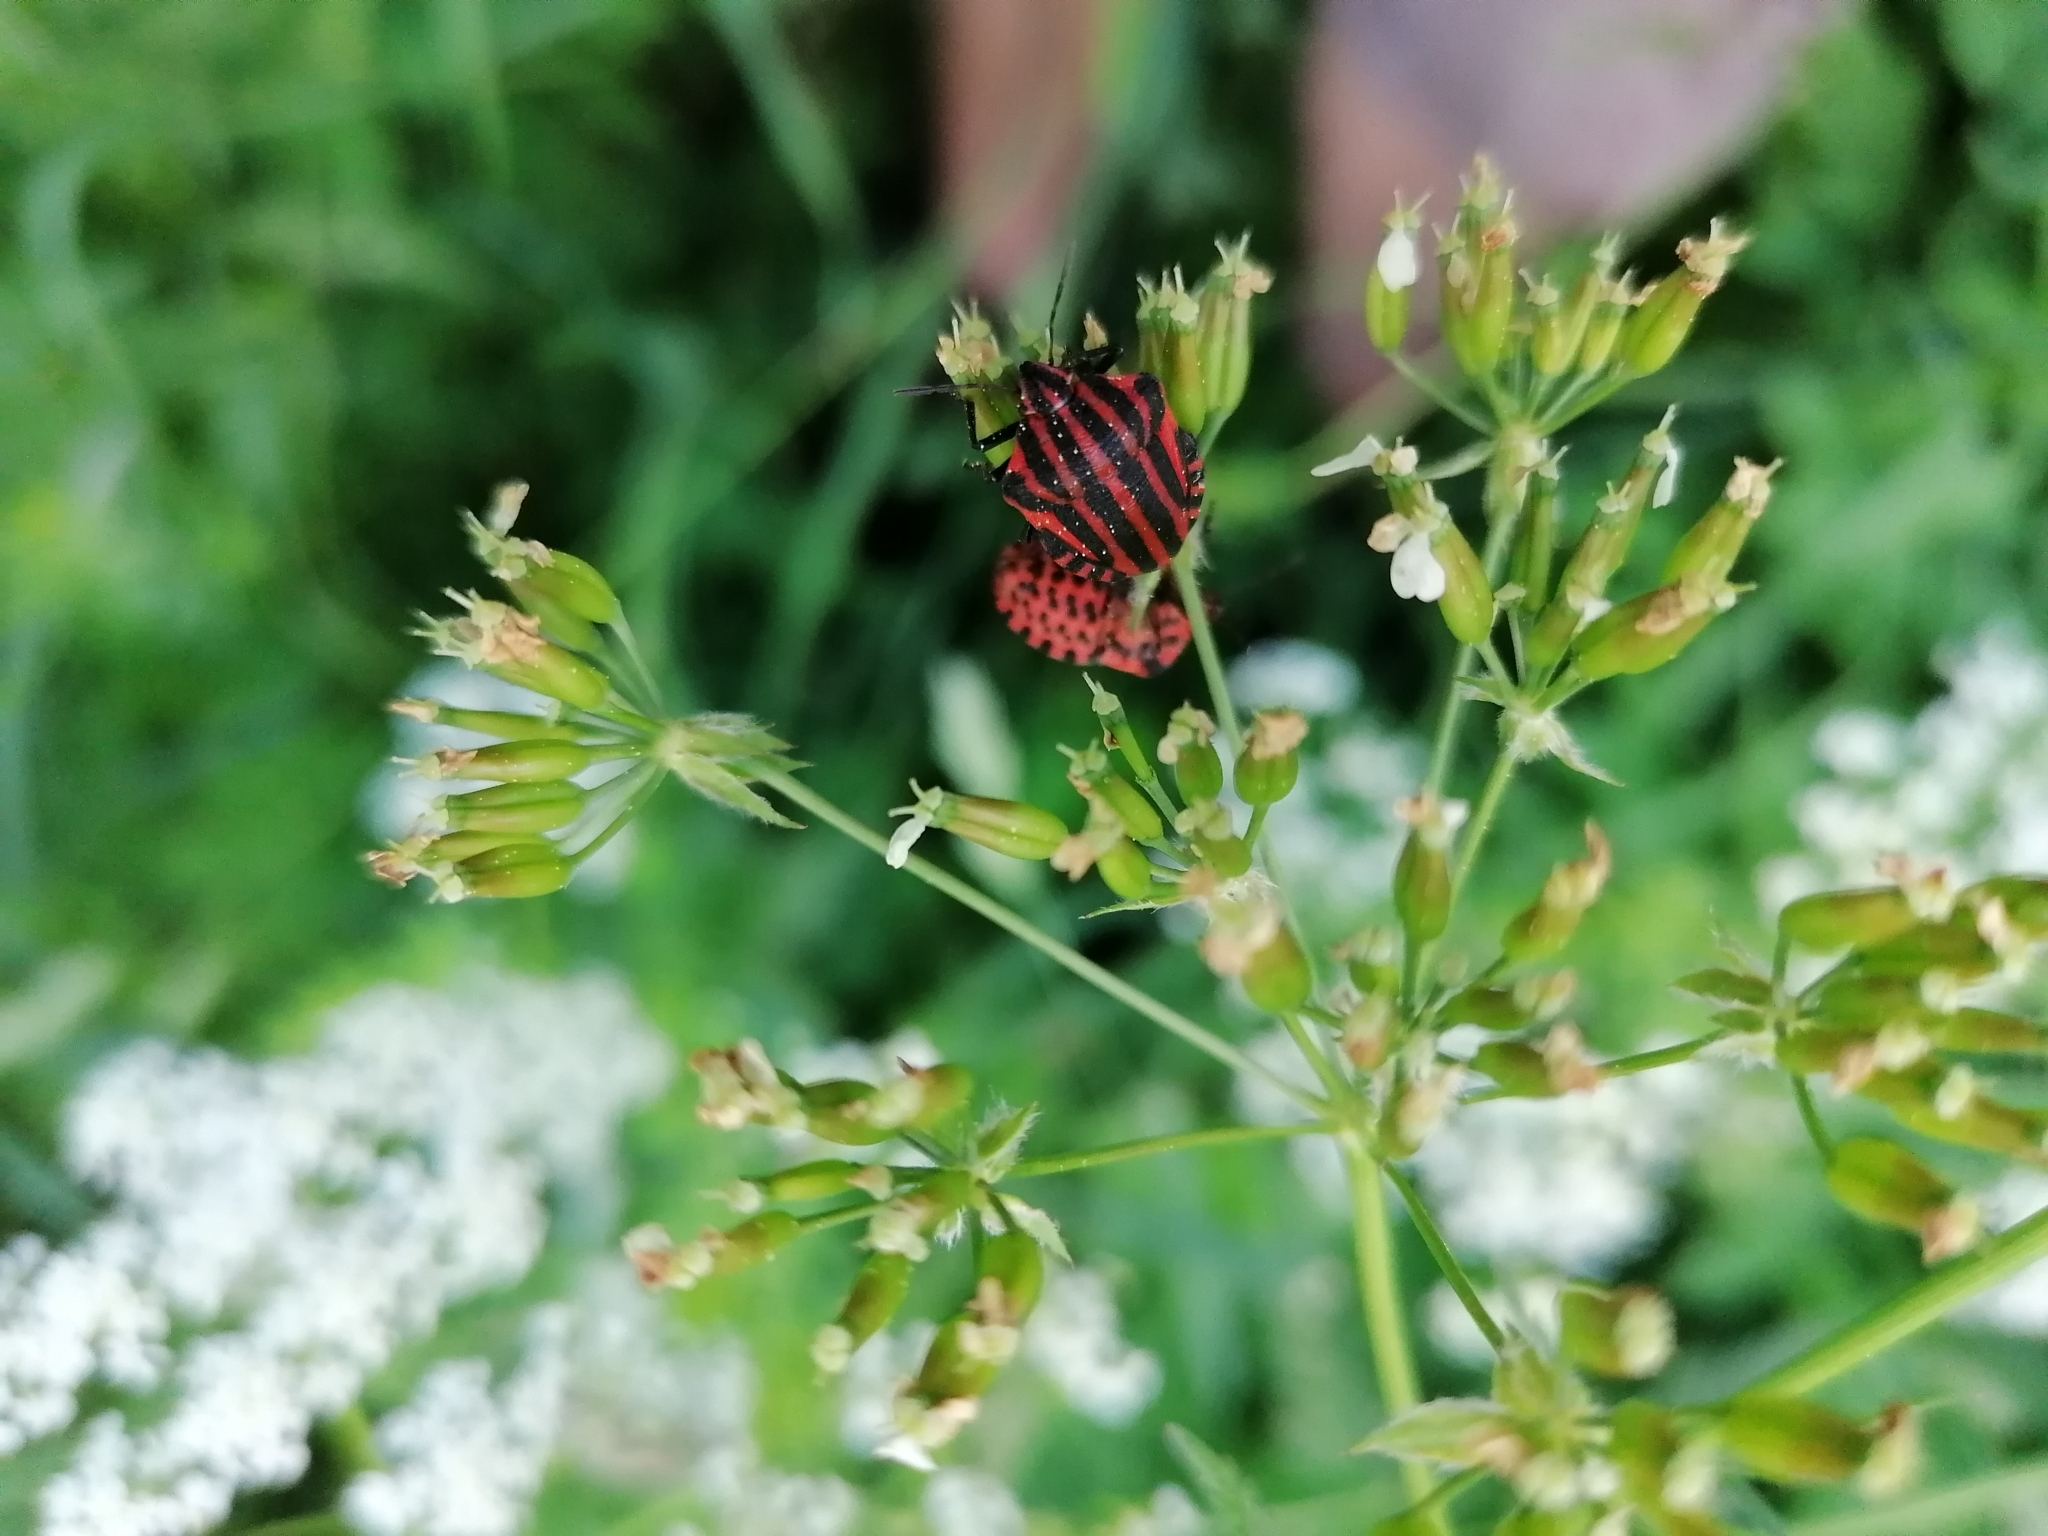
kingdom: Animalia
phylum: Arthropoda
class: Insecta
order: Hemiptera
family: Pentatomidae
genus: Graphosoma
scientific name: Graphosoma italicum
